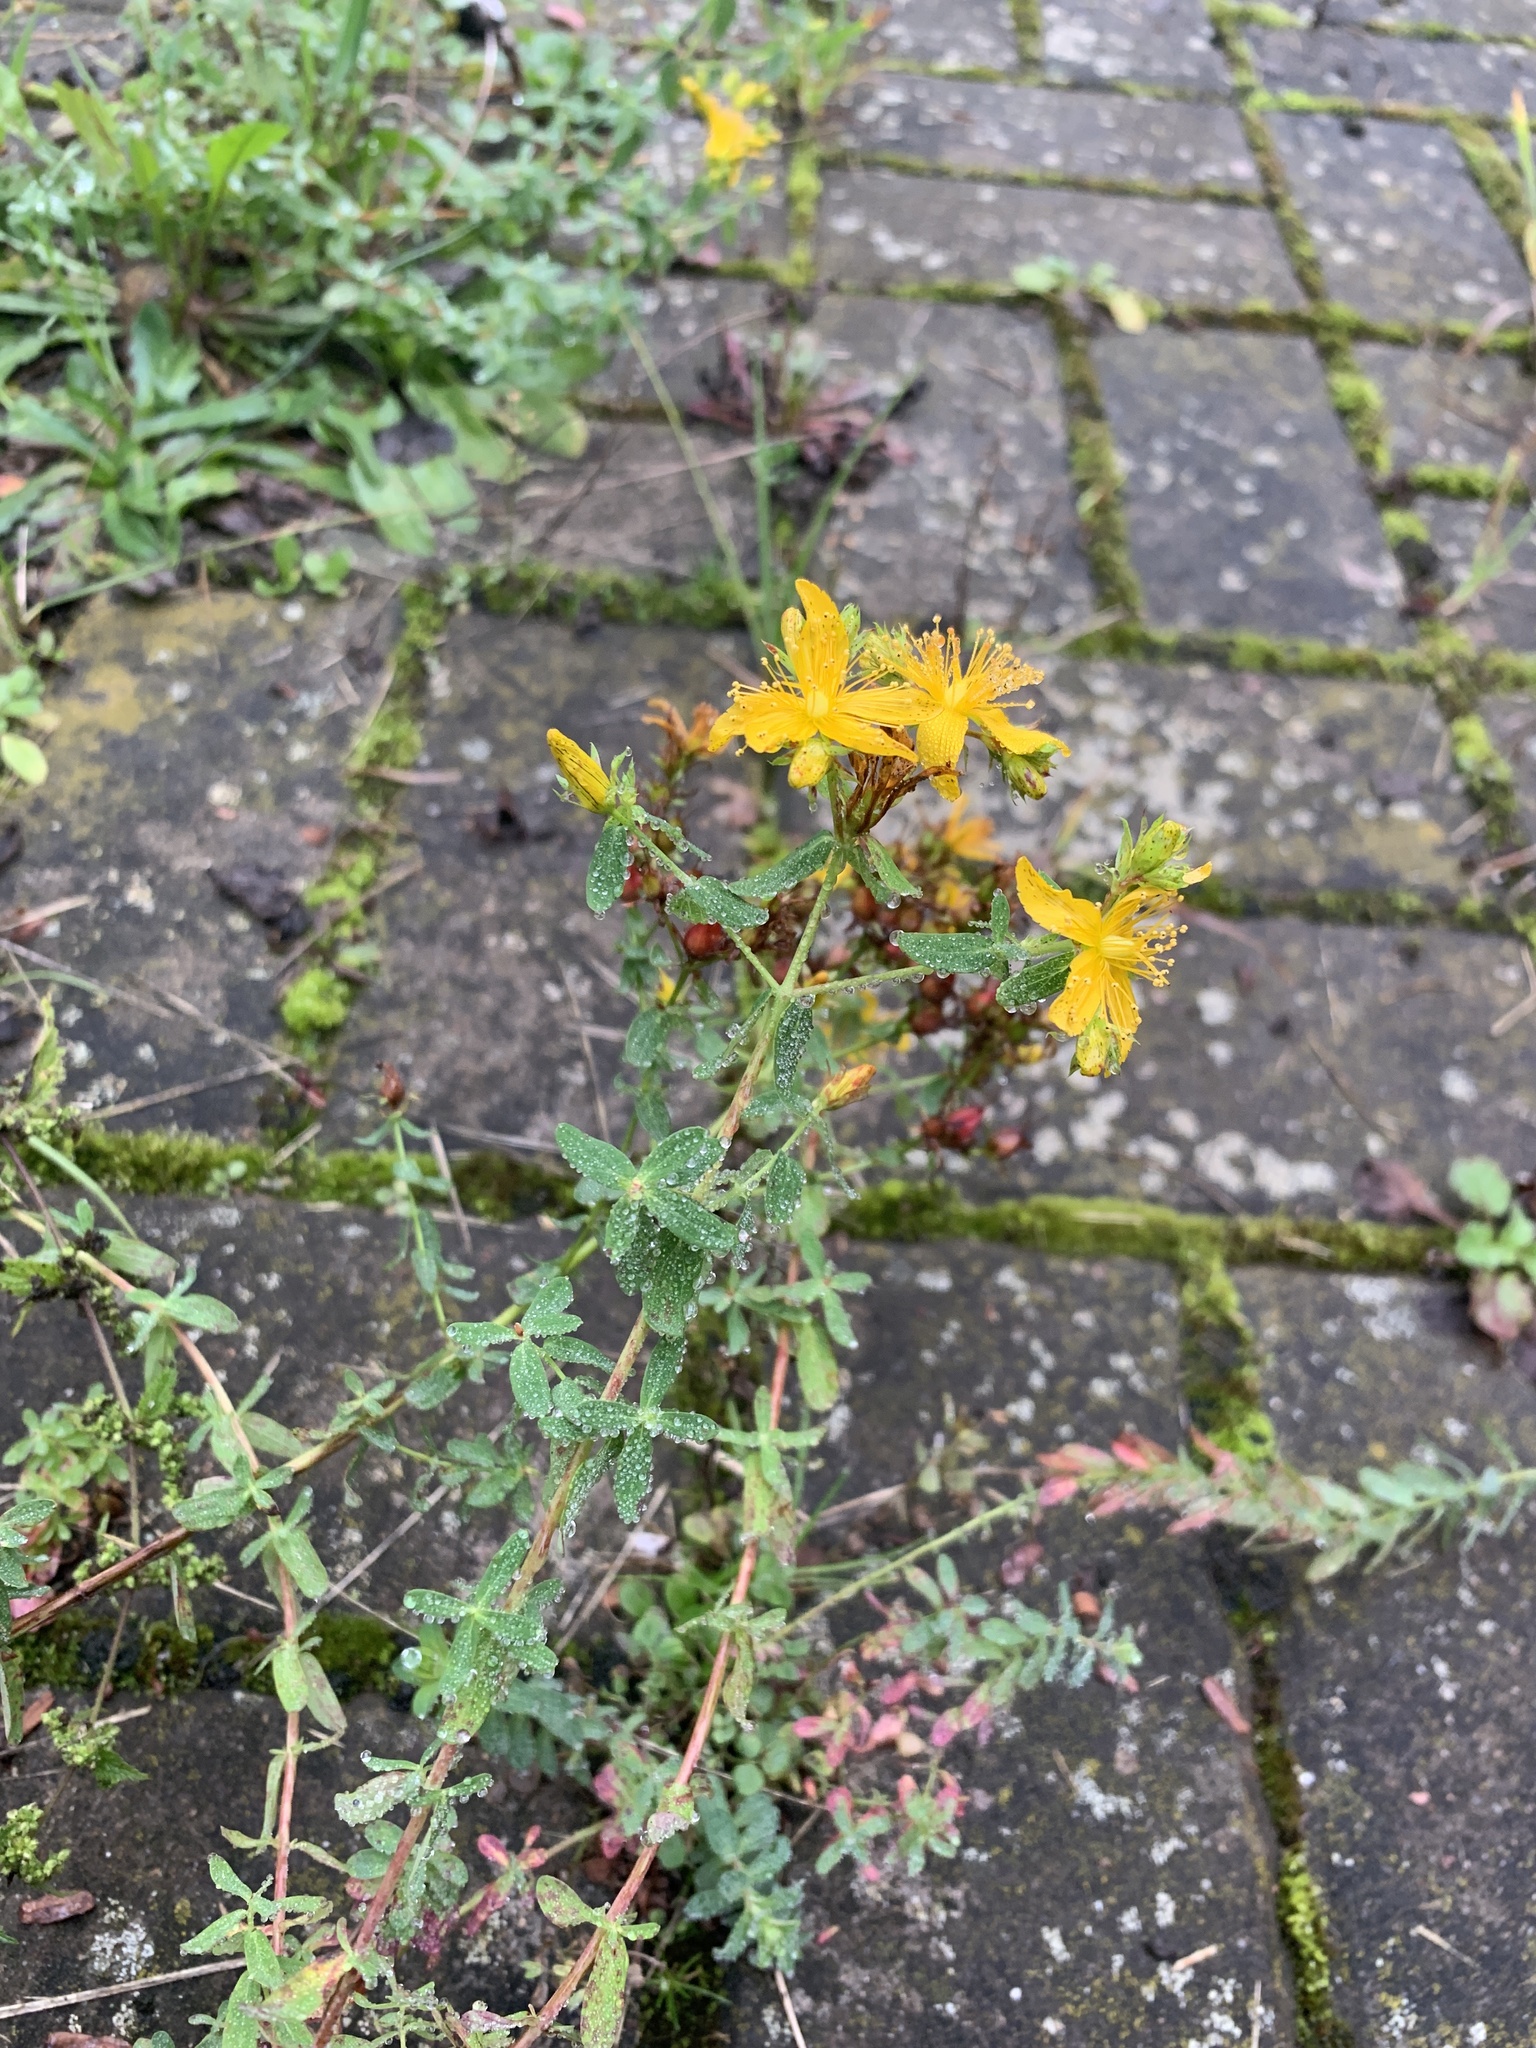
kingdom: Plantae
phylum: Tracheophyta
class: Magnoliopsida
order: Malpighiales
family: Hypericaceae
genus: Hypericum
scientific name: Hypericum perforatum
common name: Common st. johnswort
